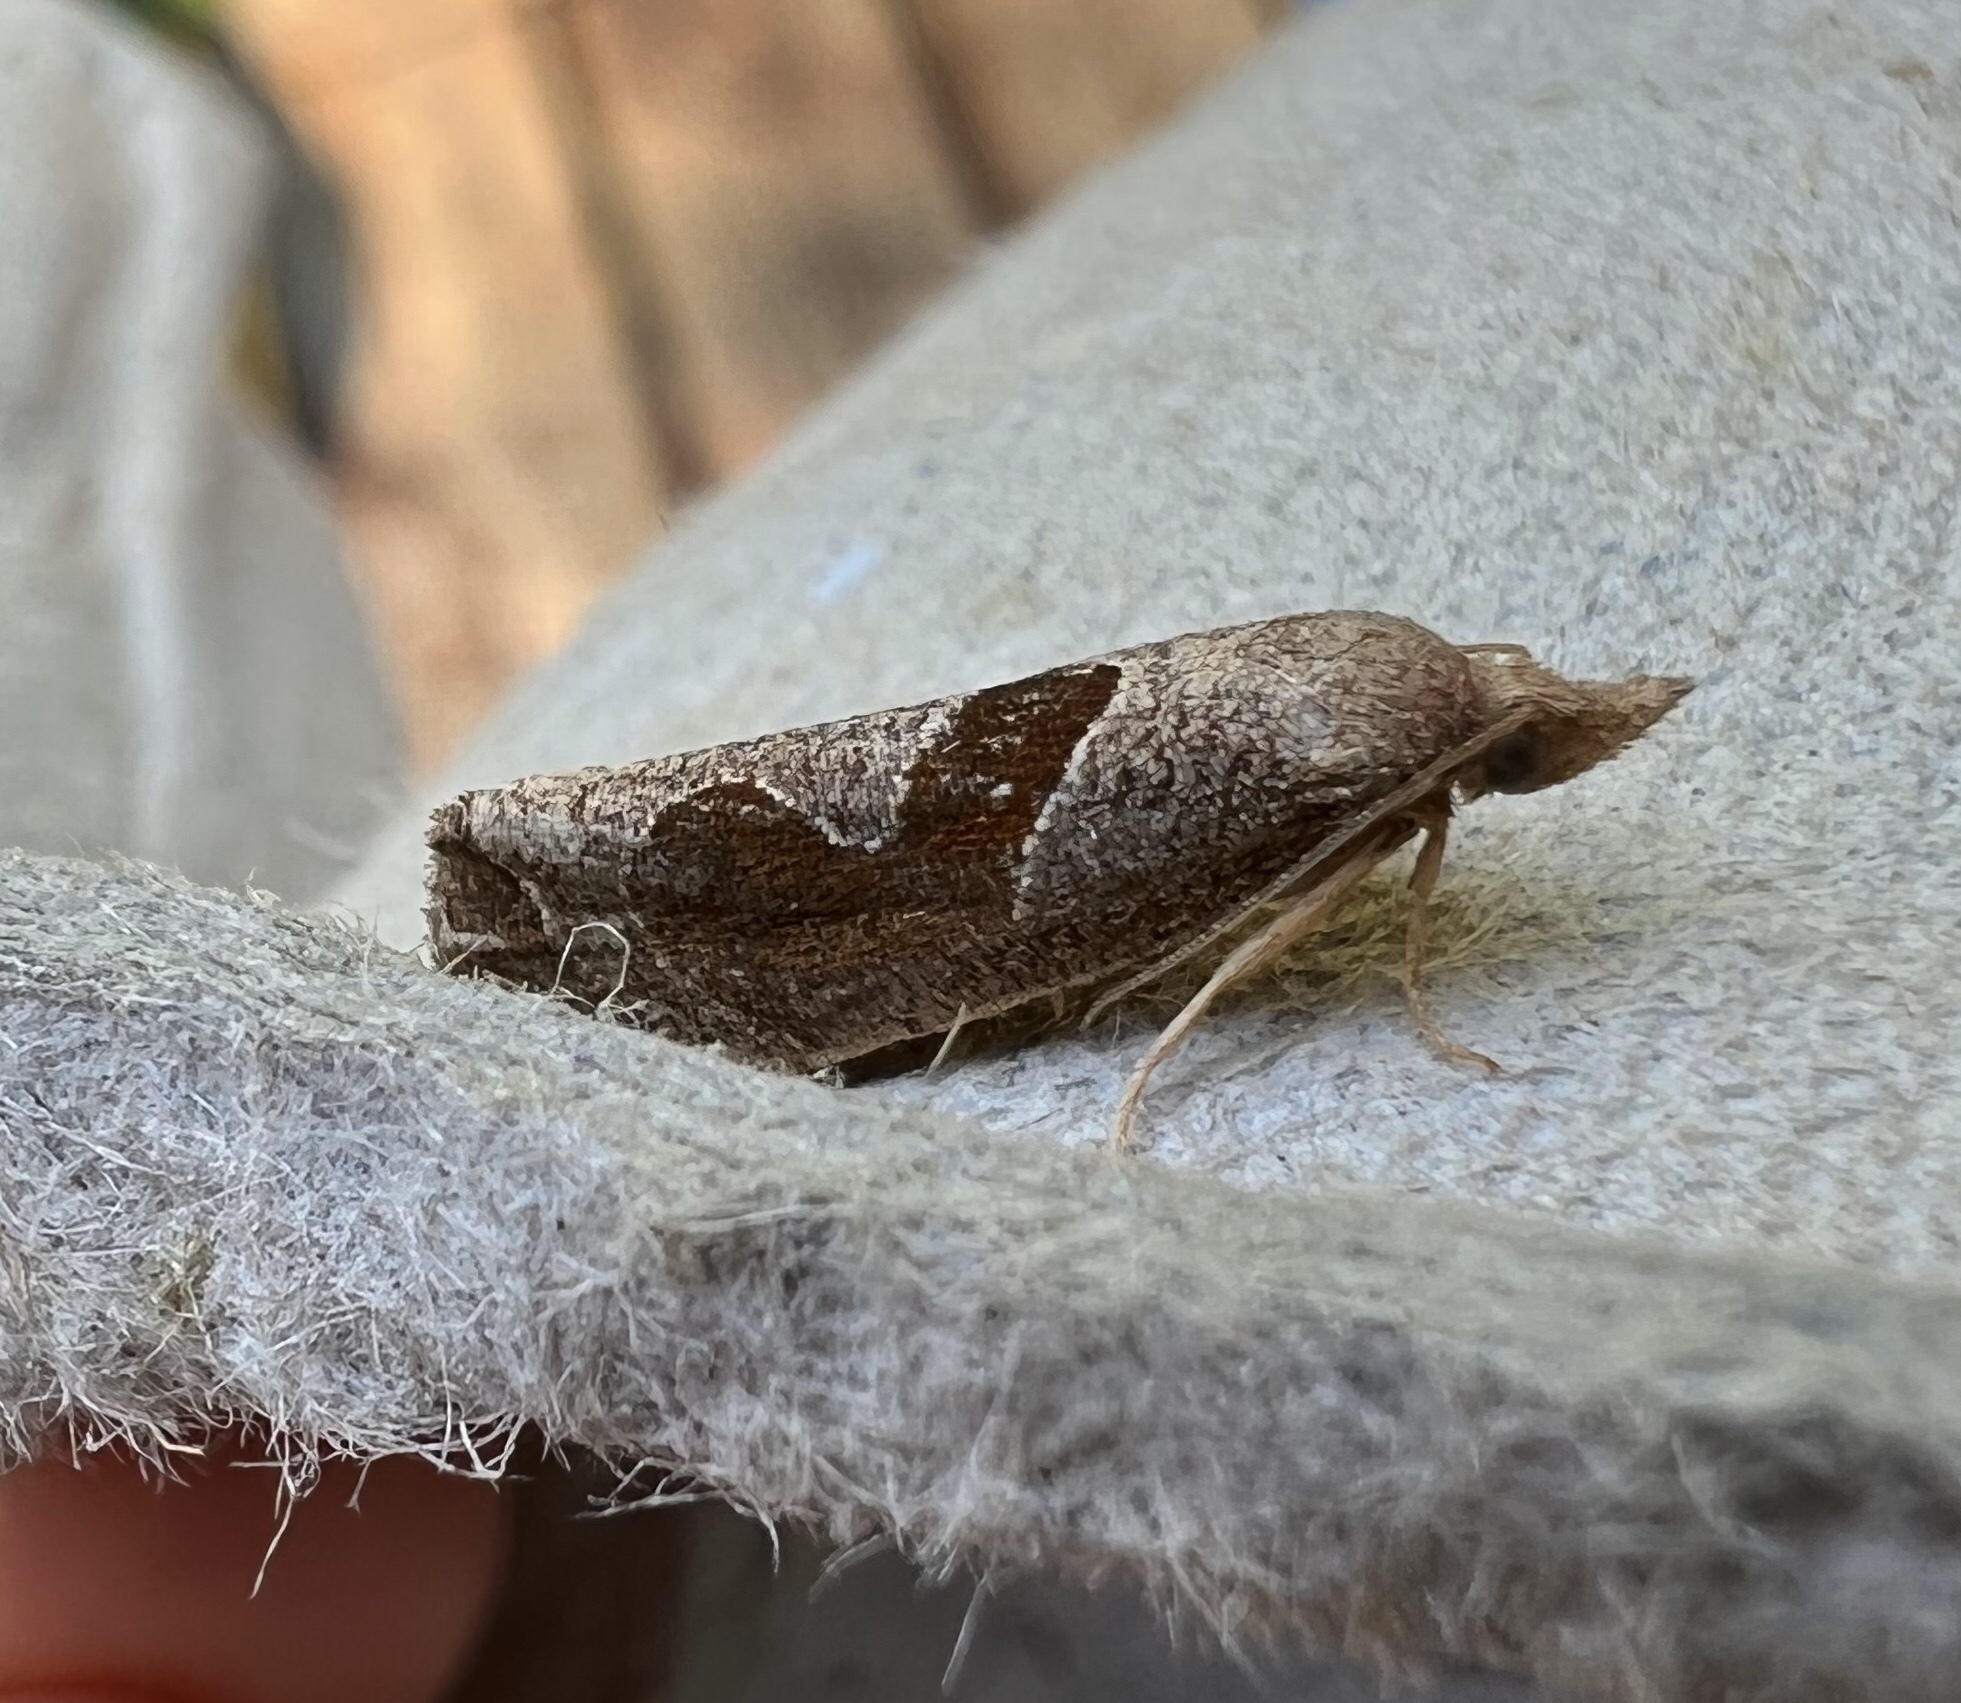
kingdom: Animalia
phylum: Arthropoda
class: Insecta
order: Lepidoptera
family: Tortricidae
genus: Pelochrista
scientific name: Pelochrista similiana
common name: Similar eucosma
